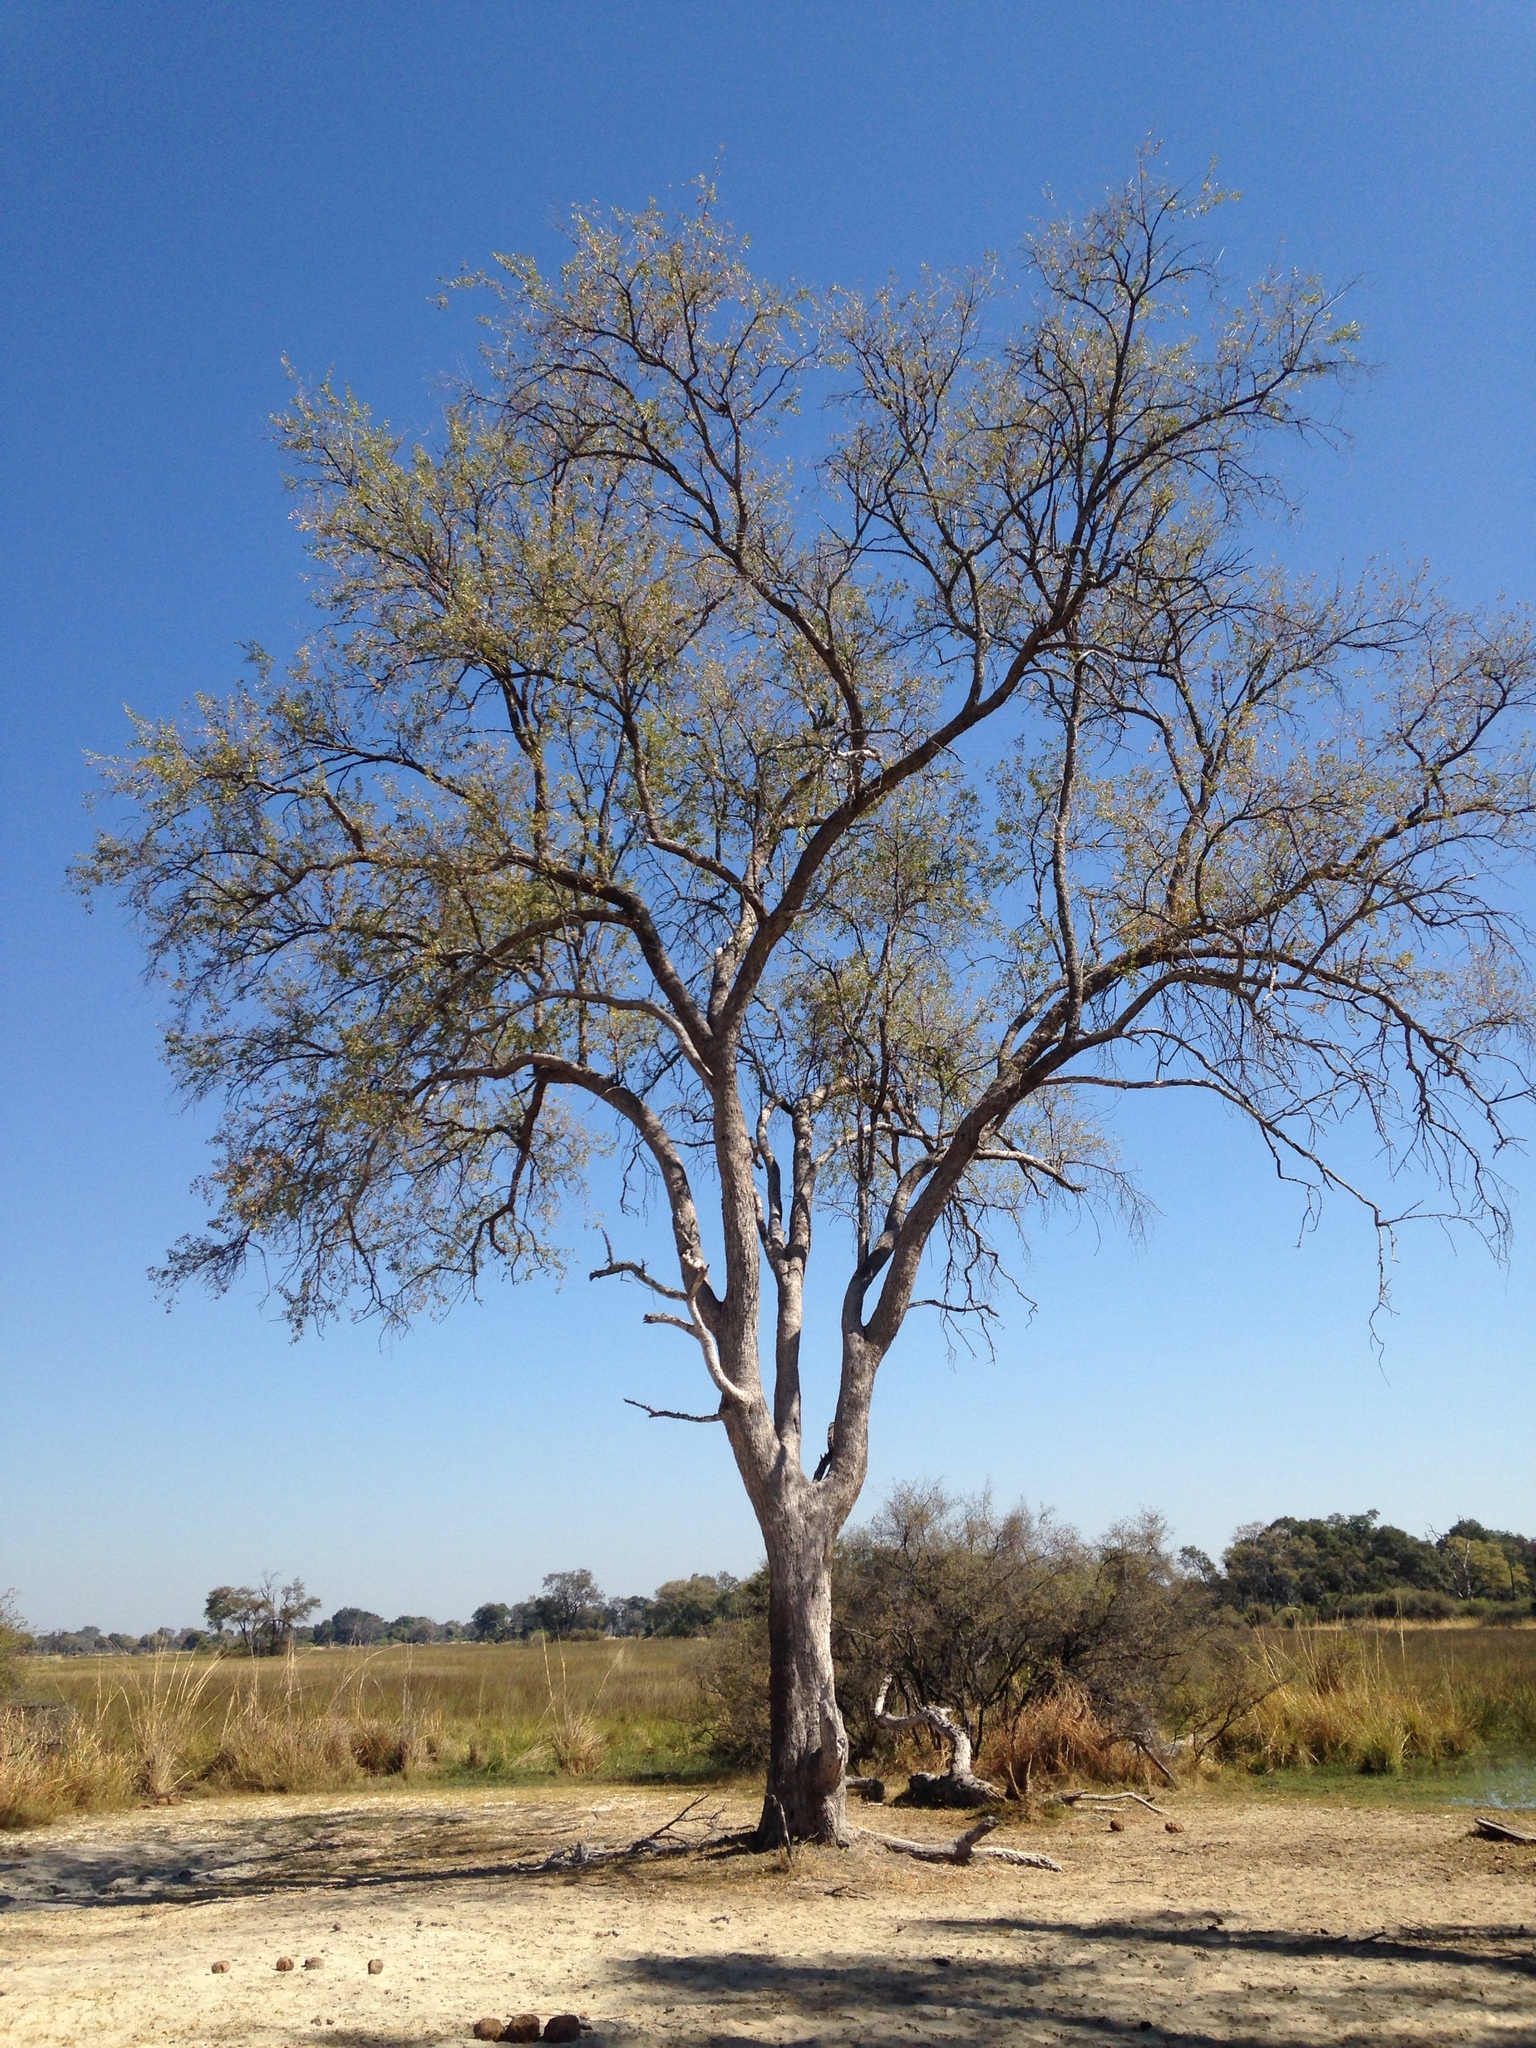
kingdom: Plantae
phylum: Tracheophyta
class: Magnoliopsida
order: Myrtales
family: Combretaceae
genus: Combretum
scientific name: Combretum imberbe
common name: Leadwood
